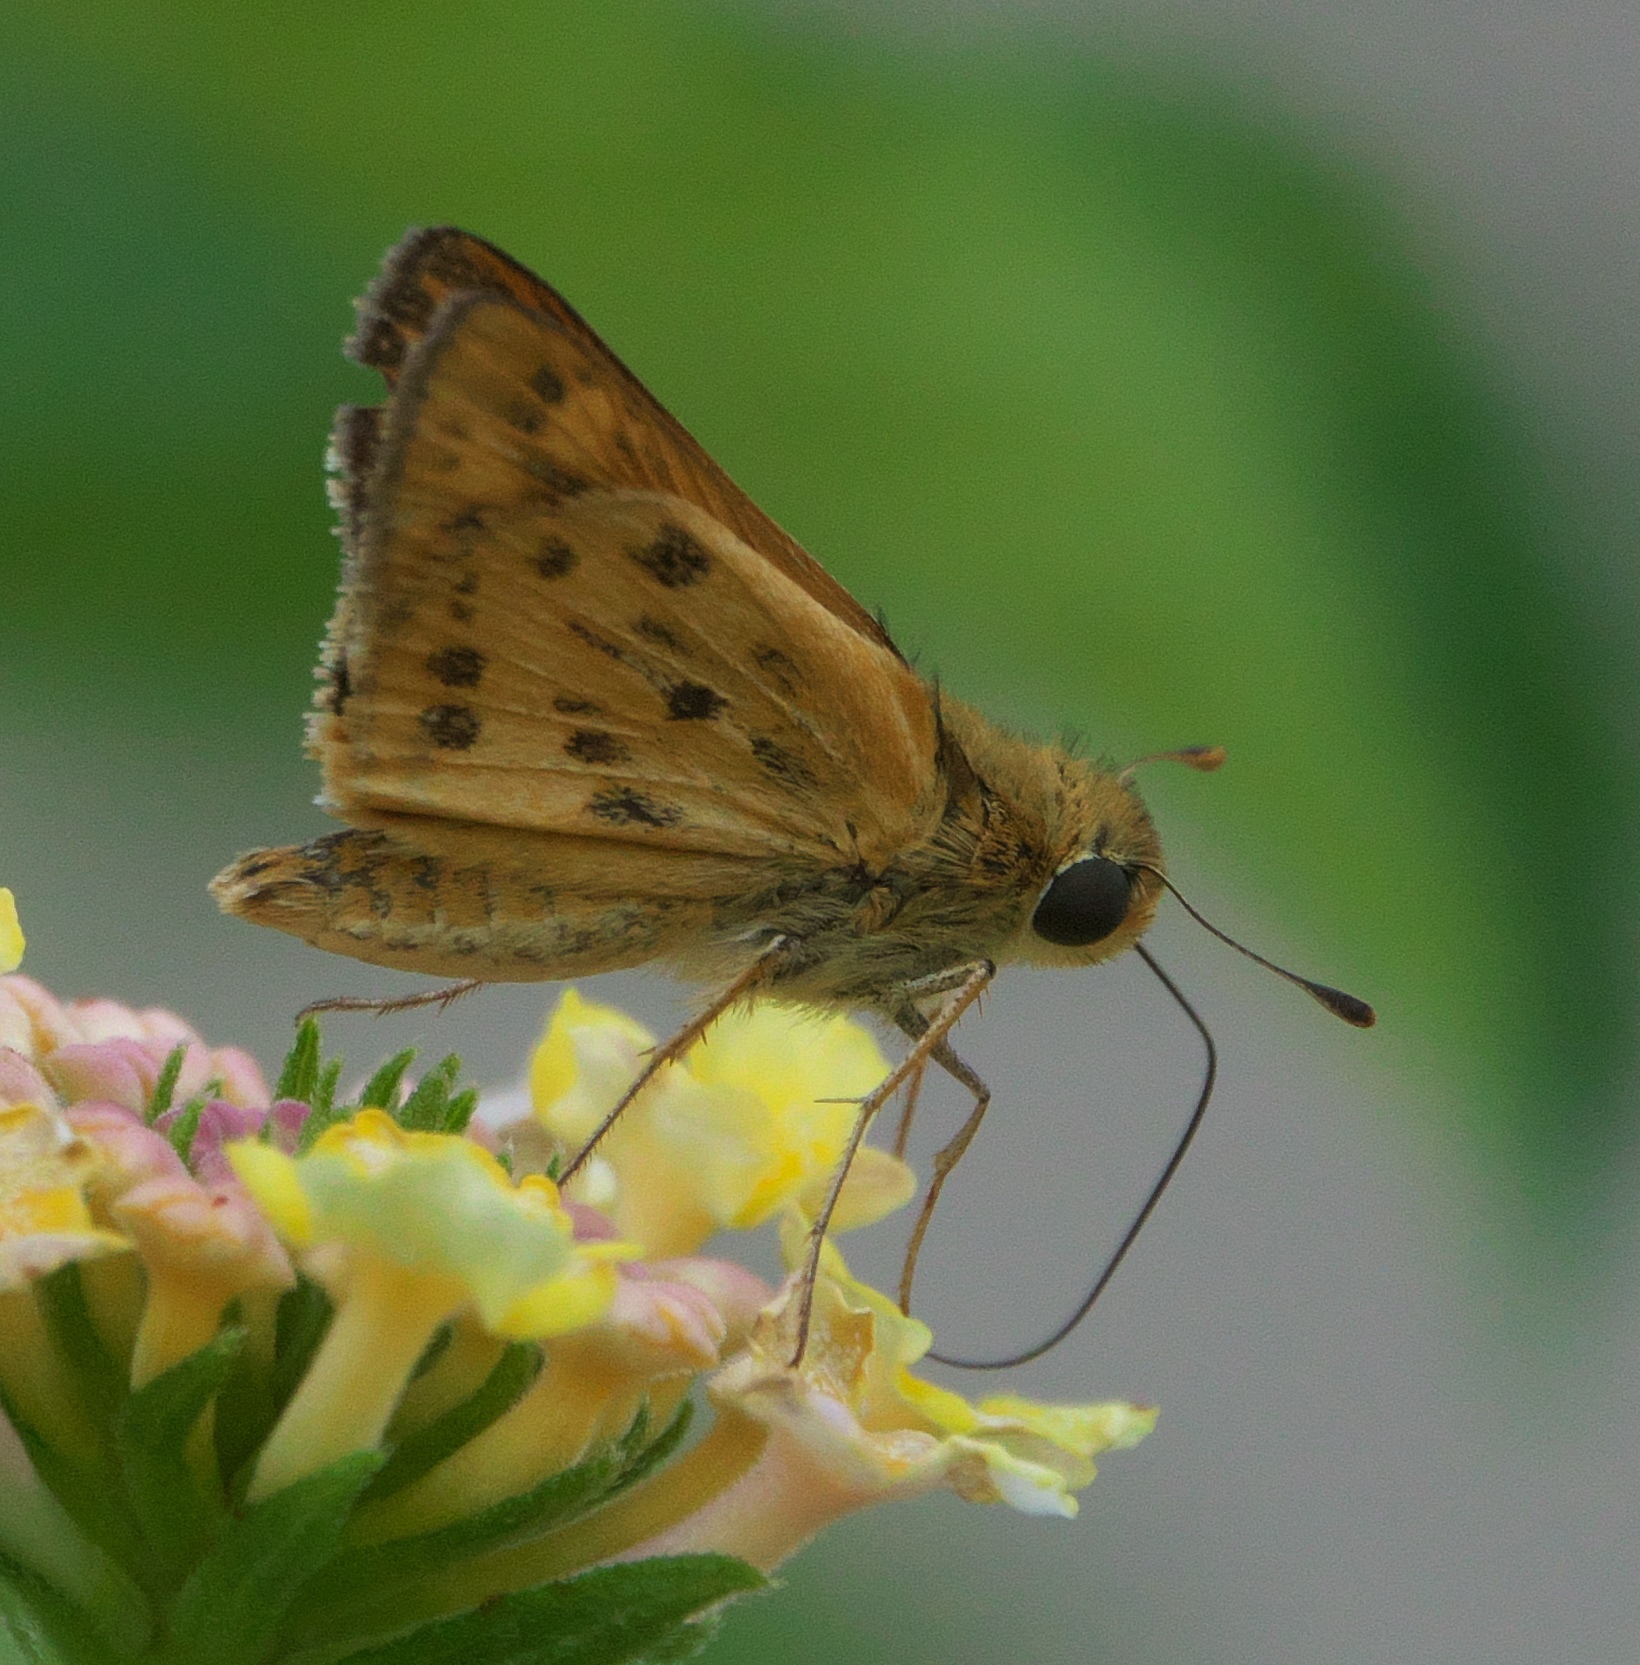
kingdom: Animalia
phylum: Arthropoda
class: Insecta
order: Lepidoptera
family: Hesperiidae
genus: Hylephila
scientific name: Hylephila phyleus
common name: Fiery skipper
